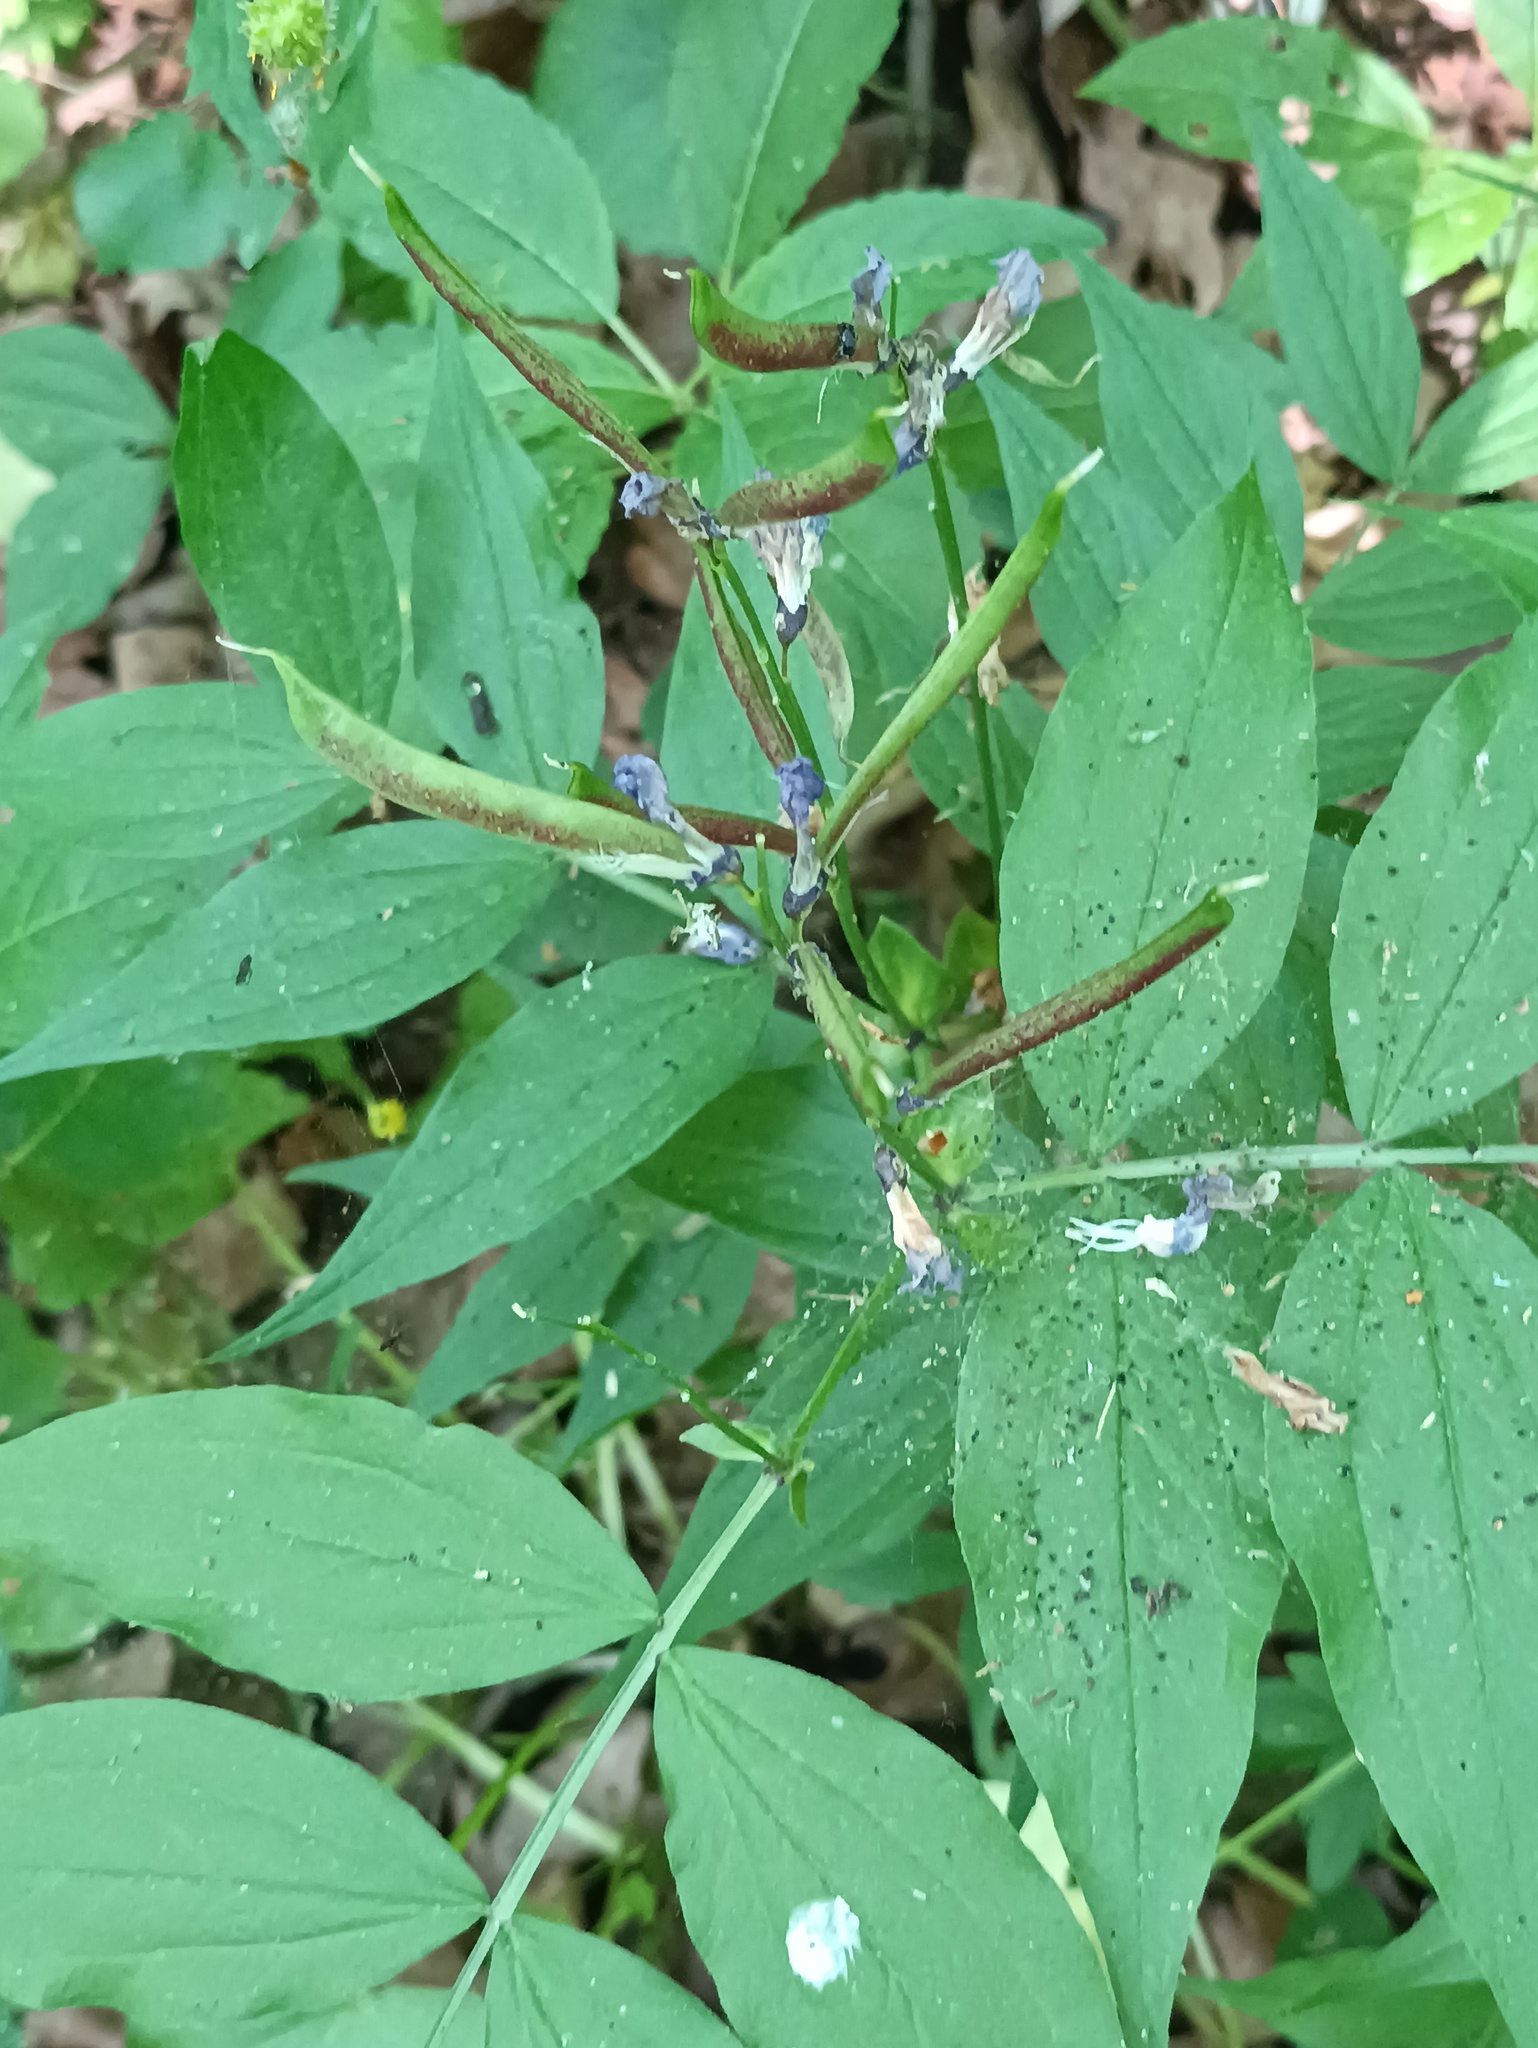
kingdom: Plantae
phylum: Tracheophyta
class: Magnoliopsida
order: Fabales
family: Fabaceae
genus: Lathyrus
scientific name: Lathyrus vernus
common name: Spring pea
